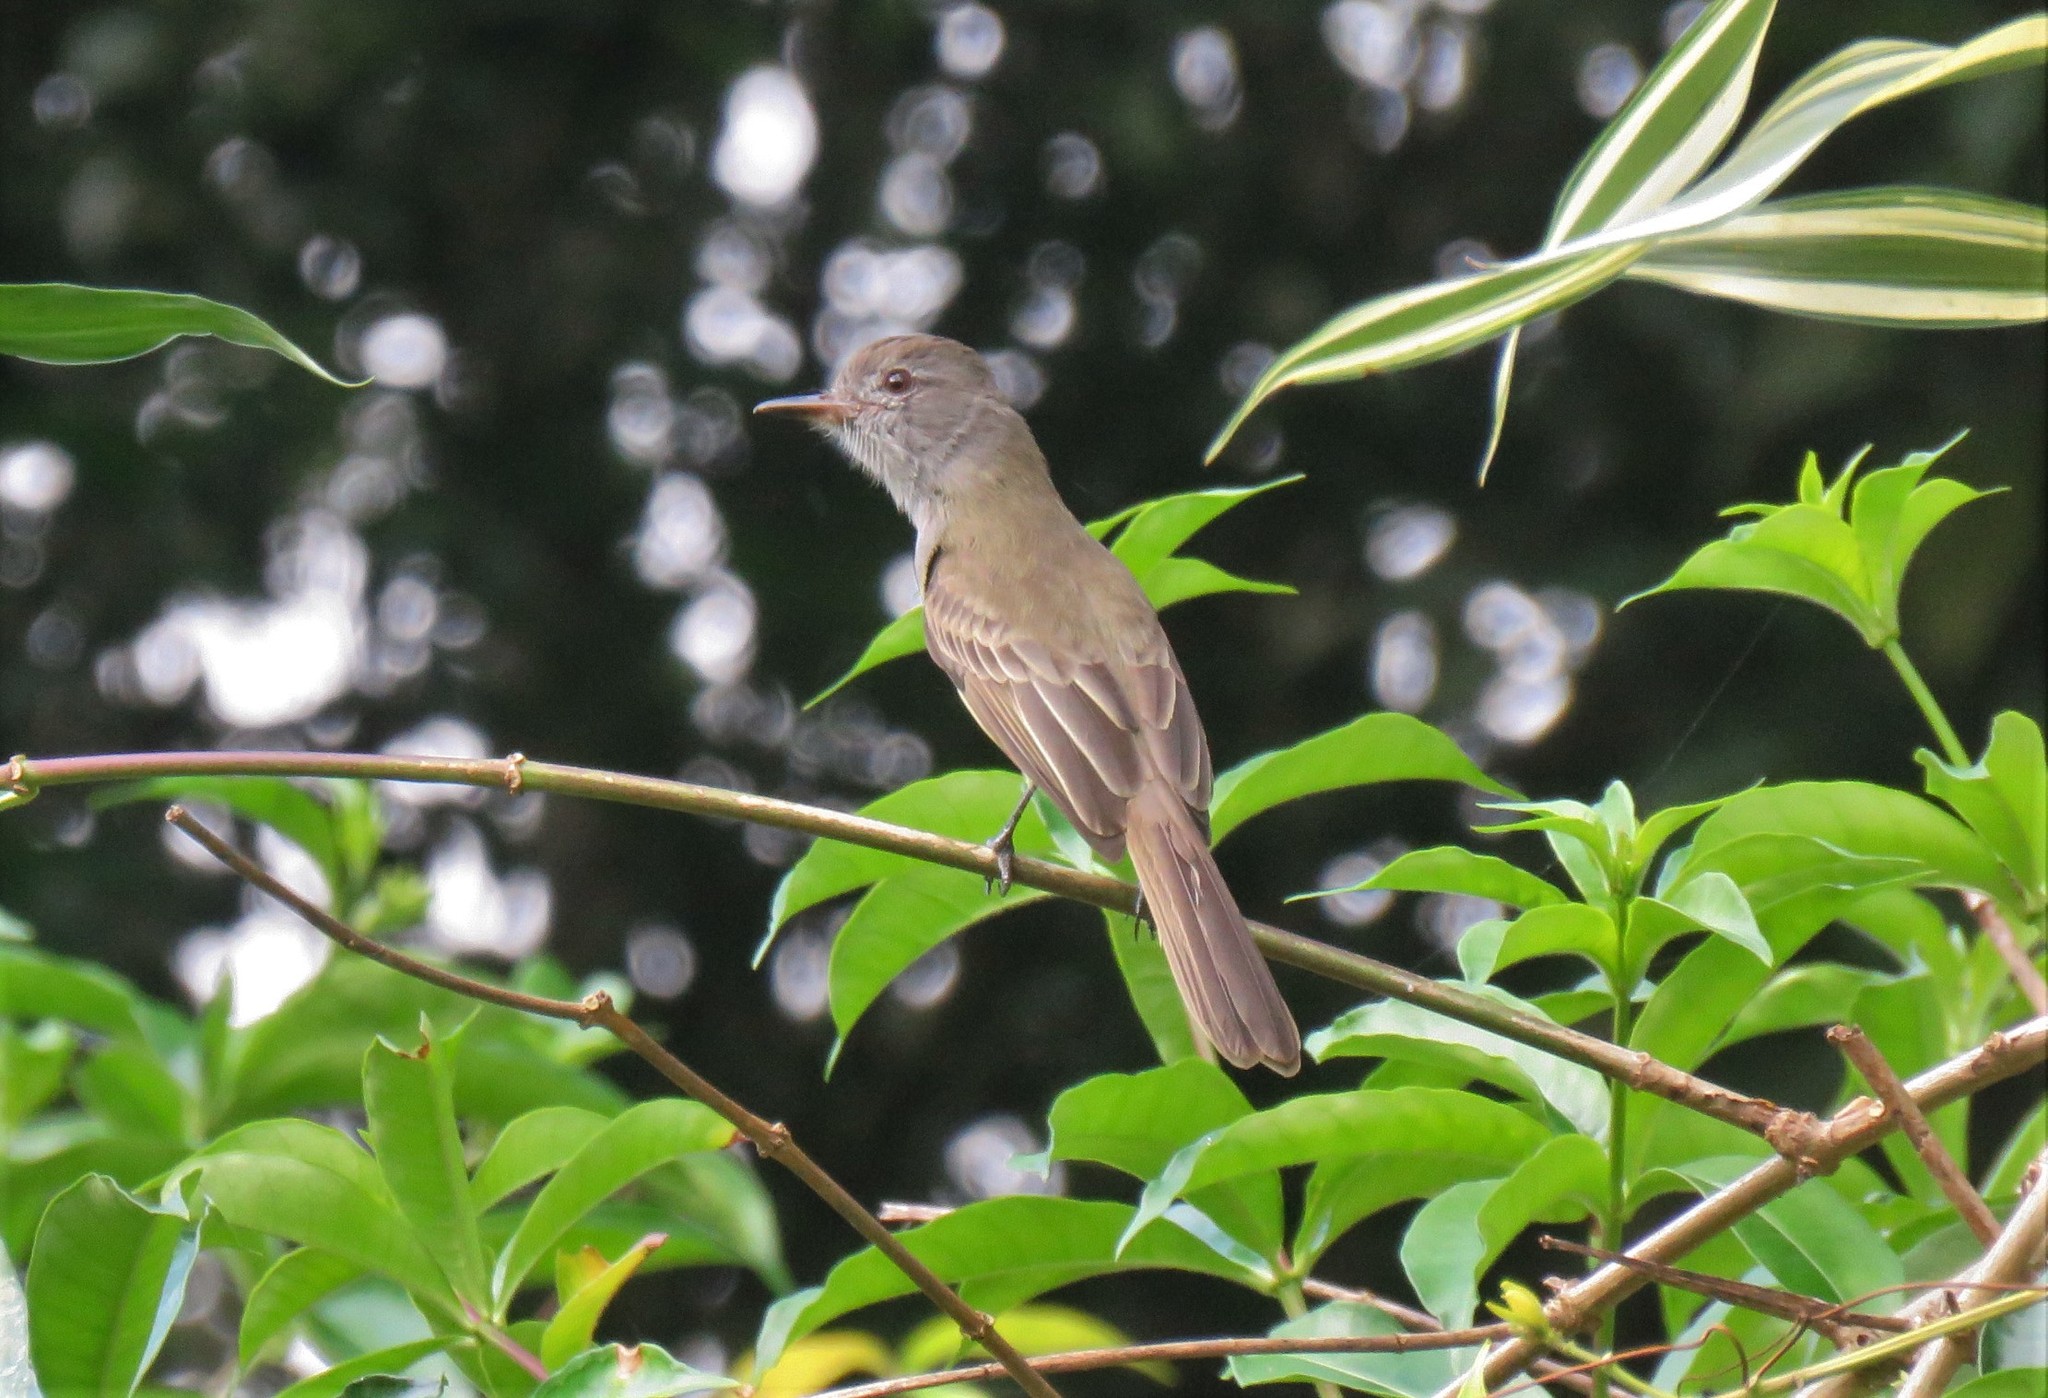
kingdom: Animalia
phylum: Chordata
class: Aves
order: Passeriformes
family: Tyrannidae
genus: Myiarchus
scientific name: Myiarchus panamensis
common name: Panama flycatcher
